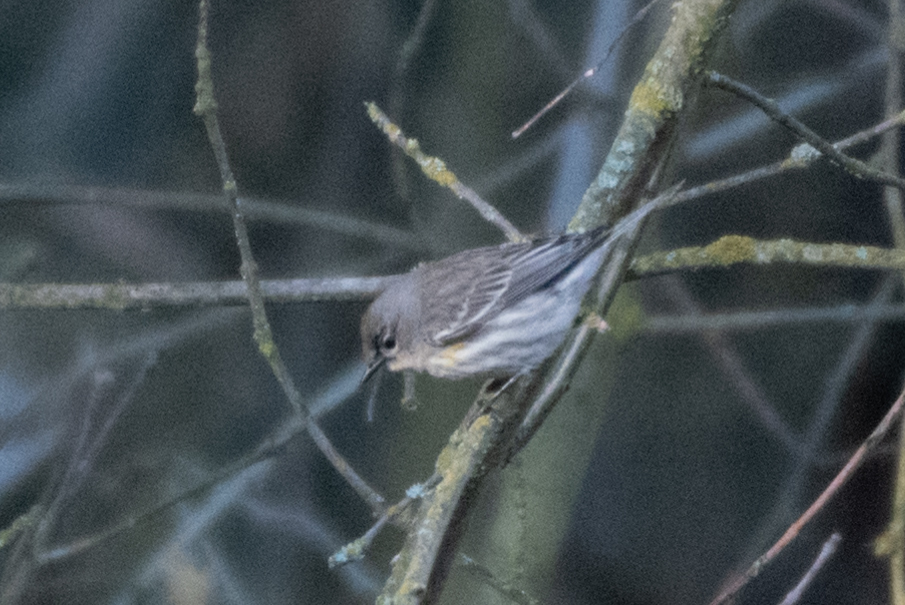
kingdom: Animalia
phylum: Chordata
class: Aves
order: Passeriformes
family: Parulidae
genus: Setophaga
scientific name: Setophaga coronata
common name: Myrtle warbler
